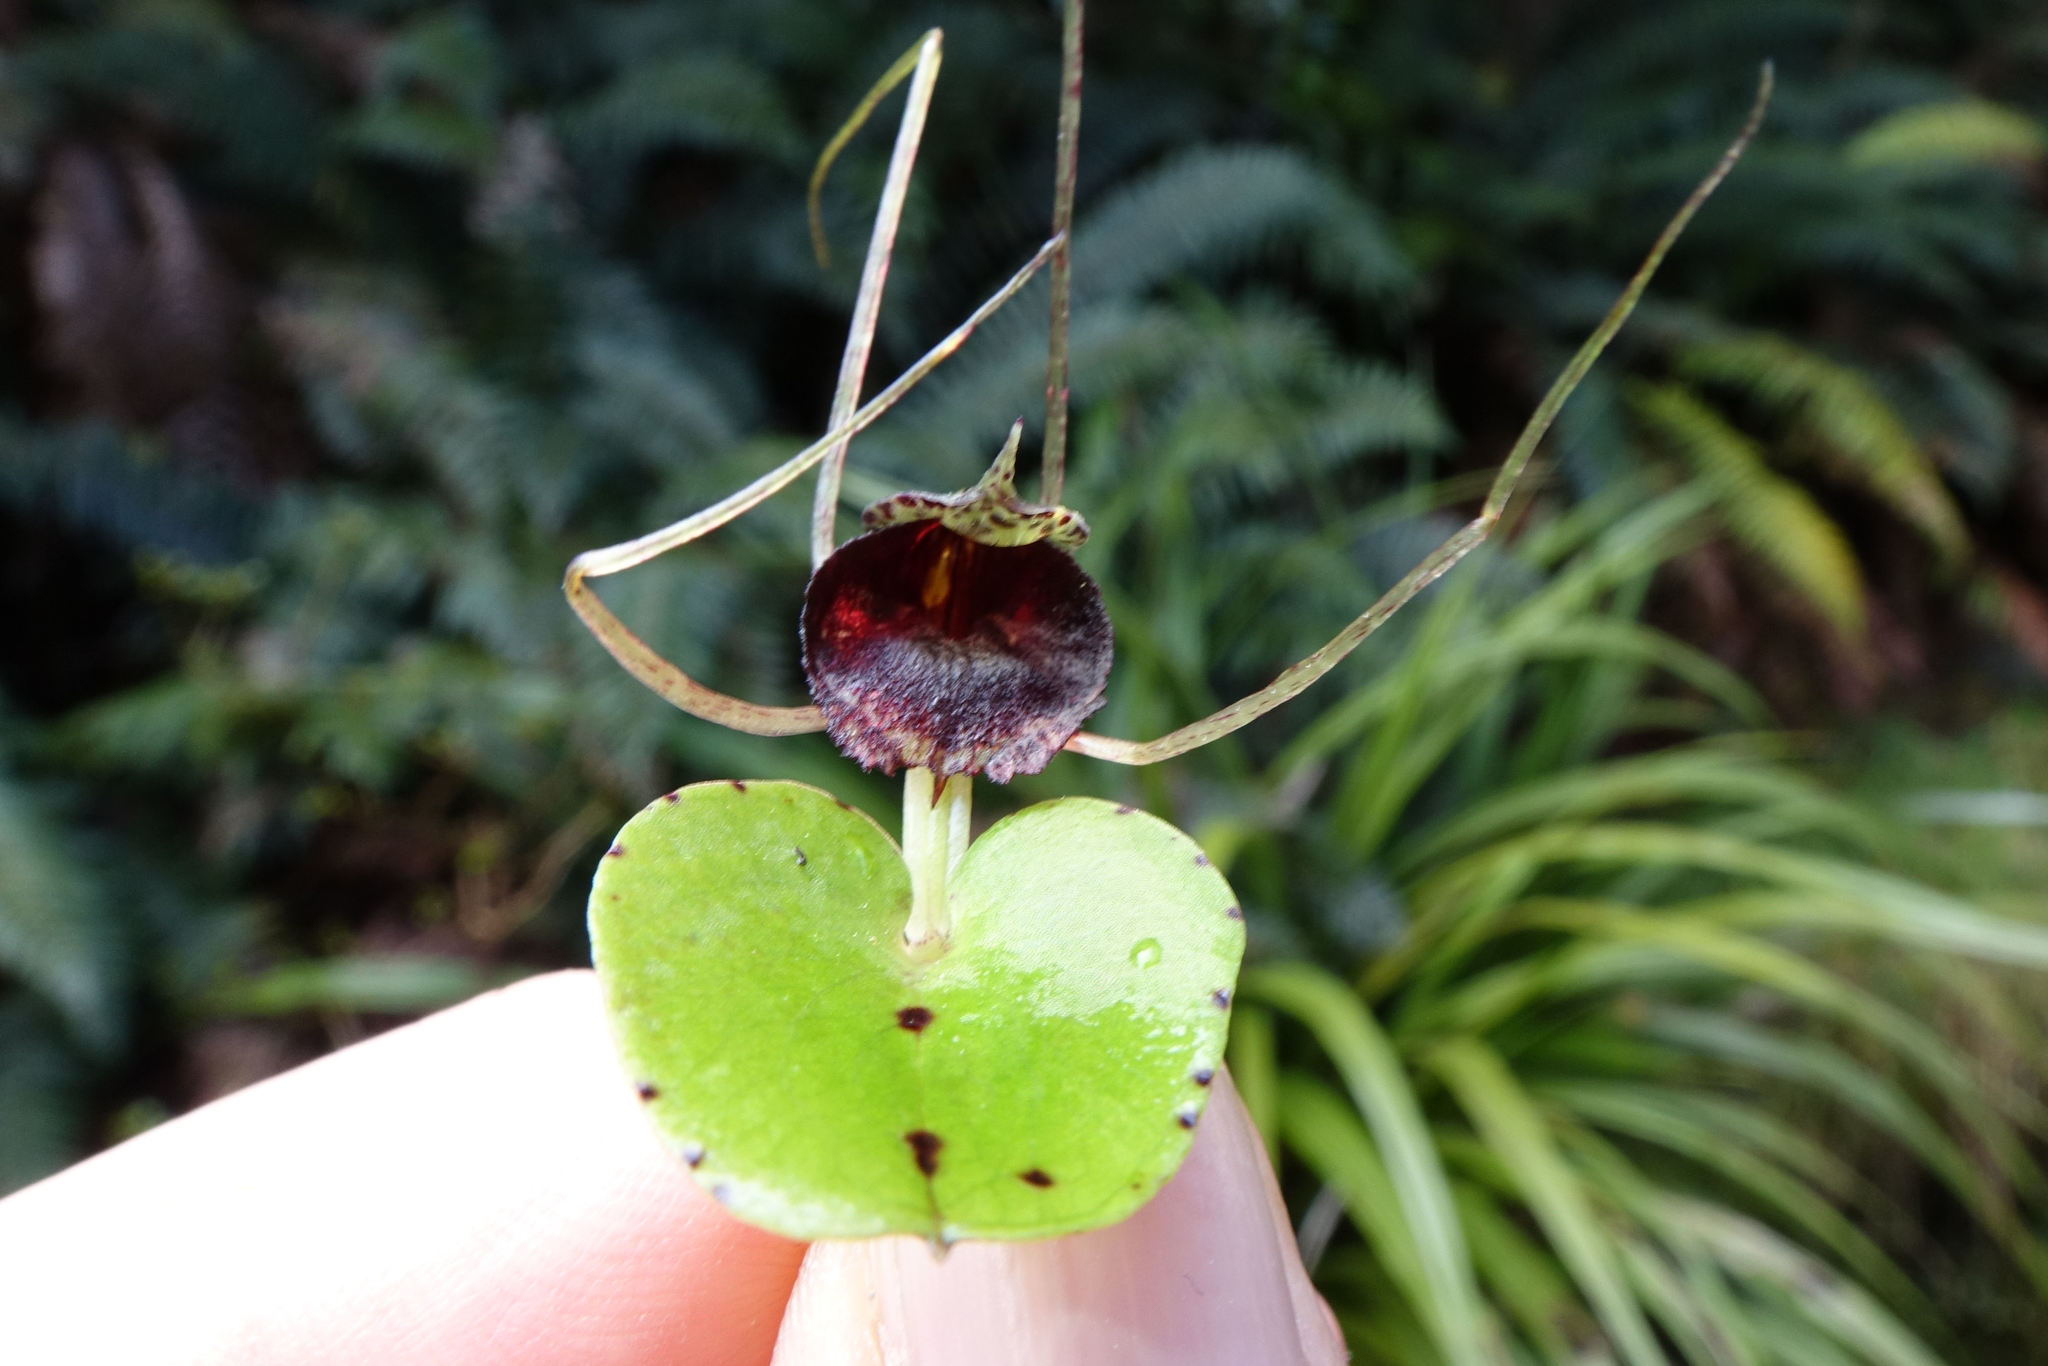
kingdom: Plantae
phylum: Tracheophyta
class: Liliopsida
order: Asparagales
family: Orchidaceae
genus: Corybas
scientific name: Corybas iridescens
